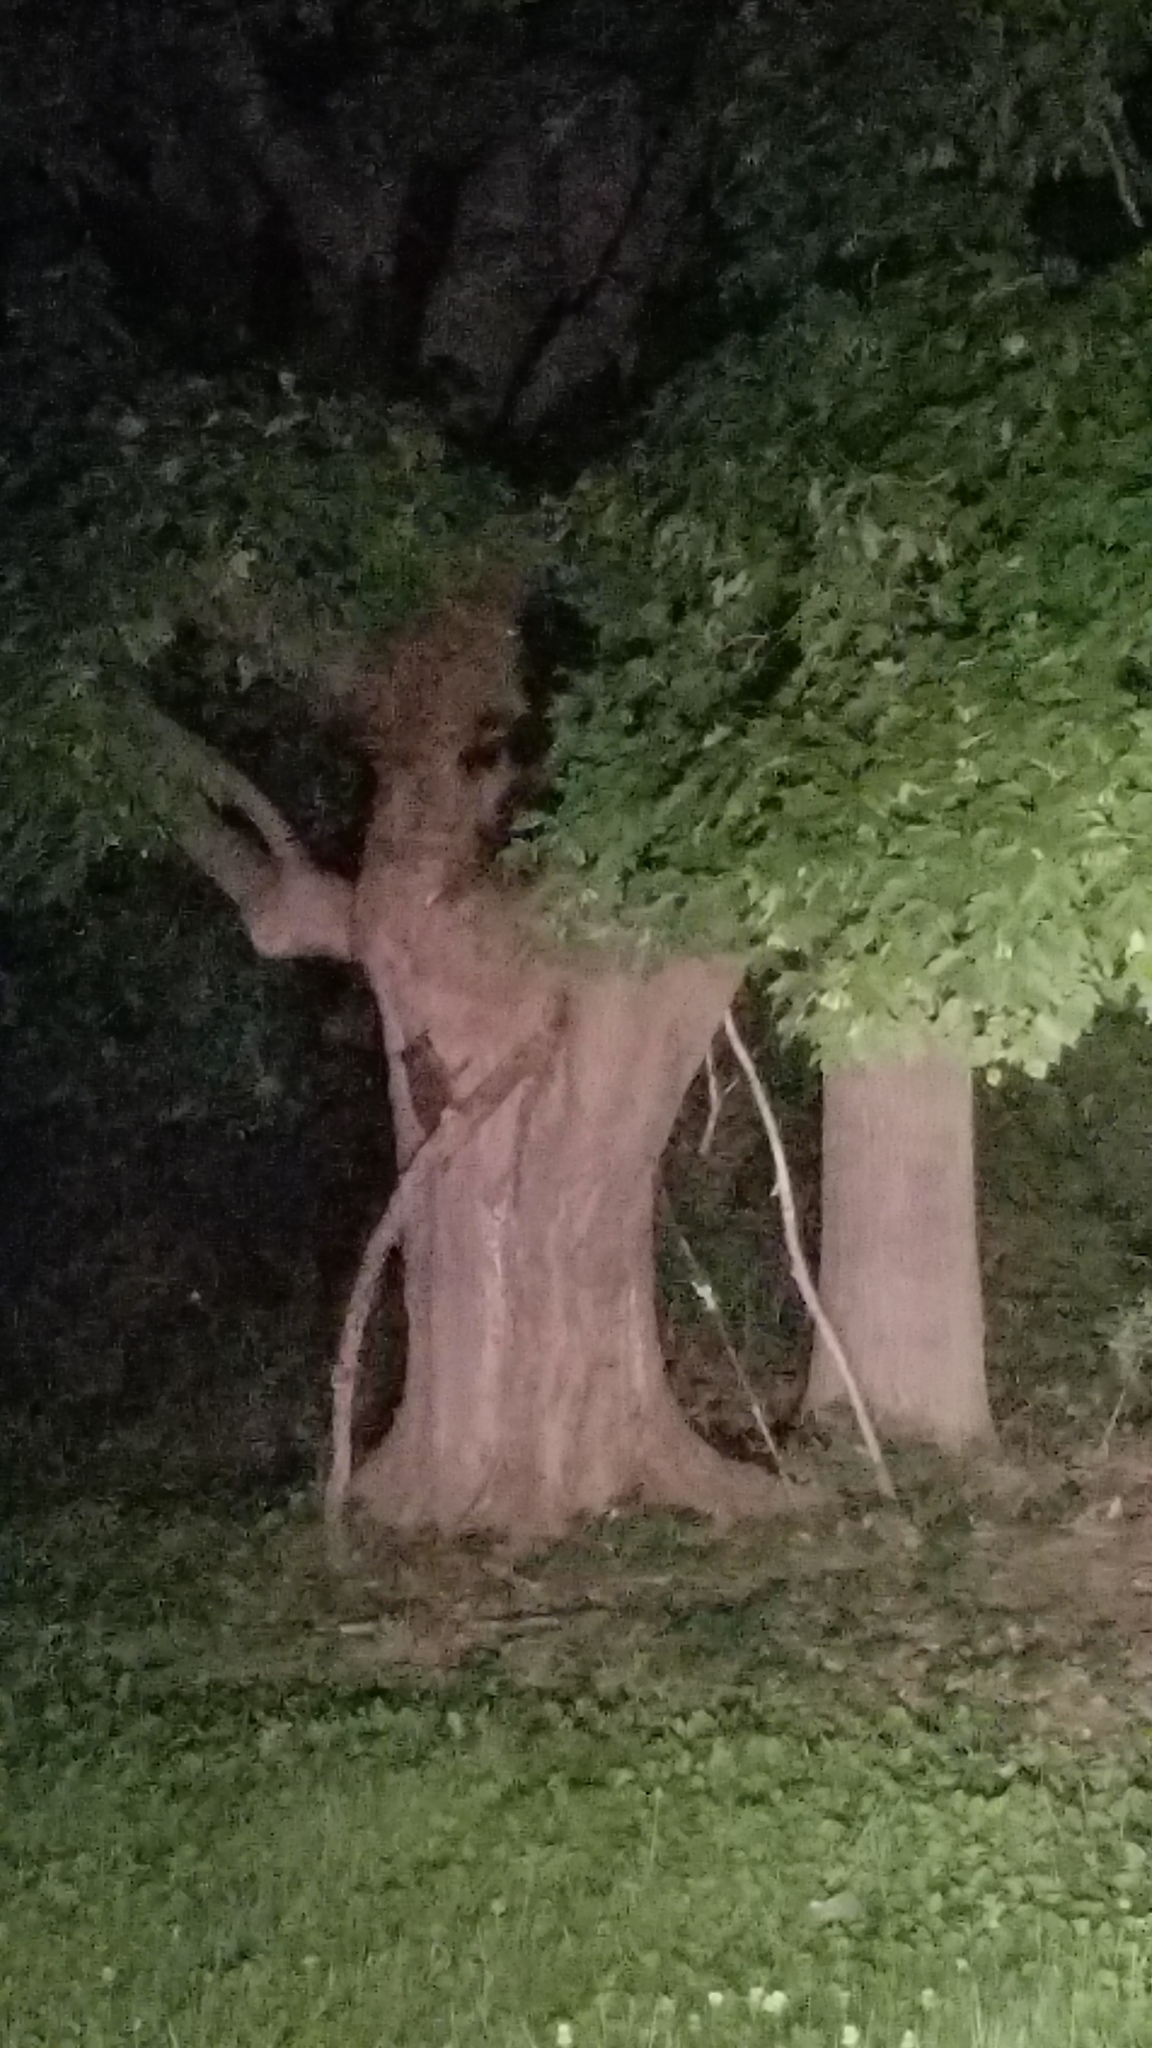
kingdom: Animalia
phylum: Chordata
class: Mammalia
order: Carnivora
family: Procyonidae
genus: Procyon
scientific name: Procyon lotor
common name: Raccoon
